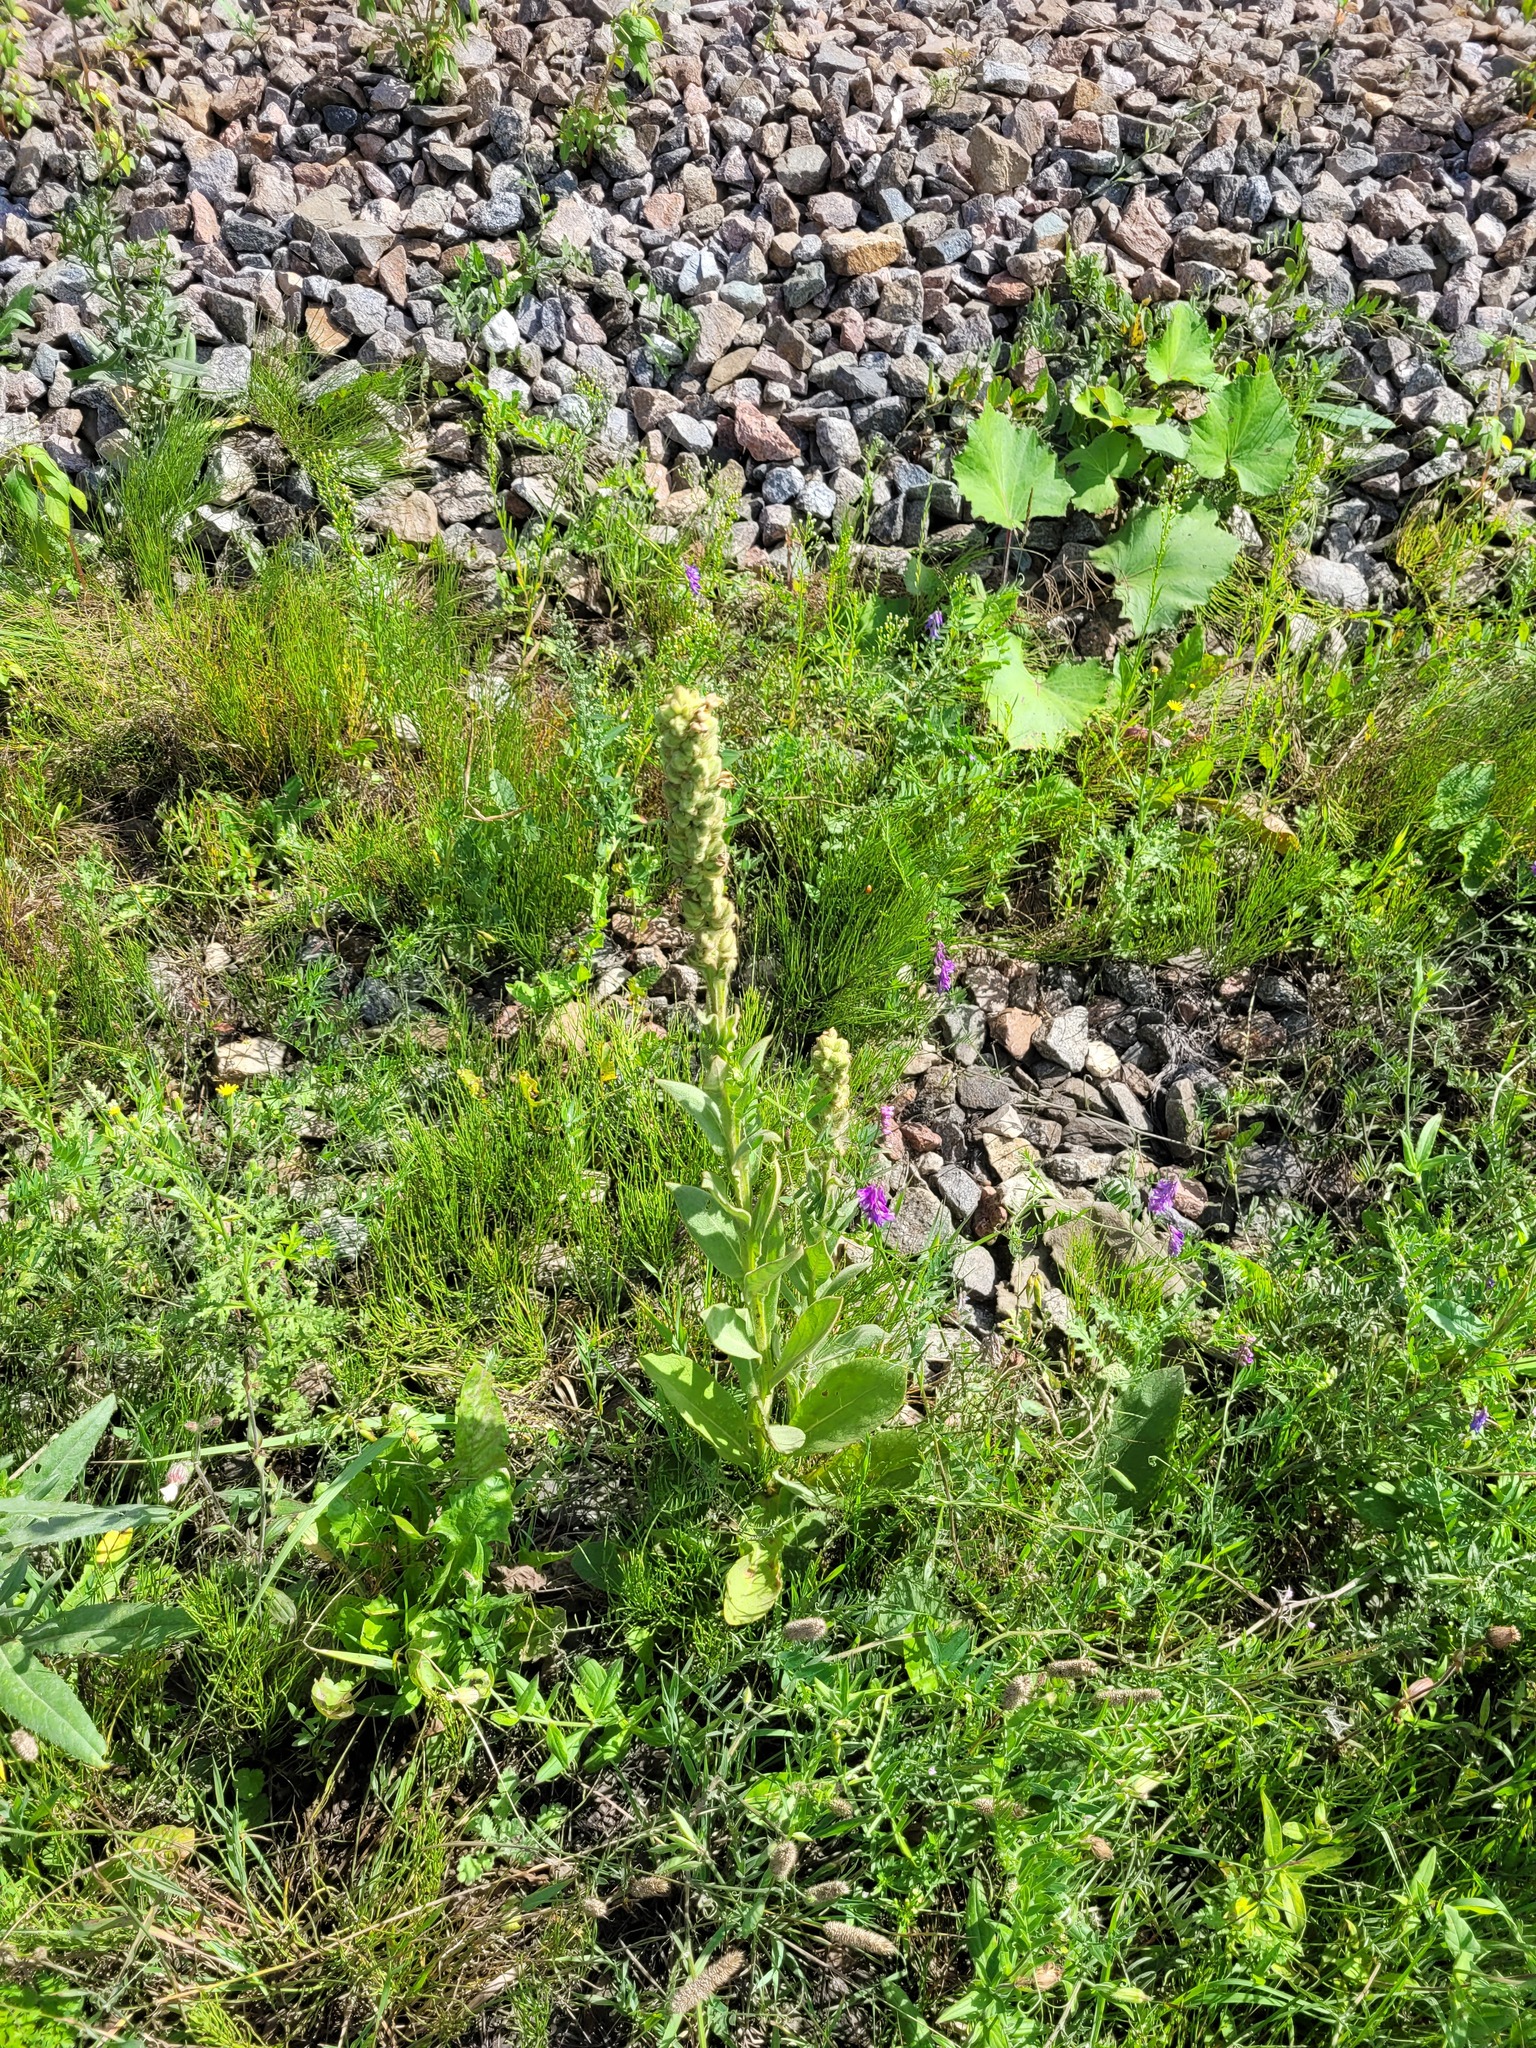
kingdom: Plantae
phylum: Tracheophyta
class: Magnoliopsida
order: Lamiales
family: Scrophulariaceae
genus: Verbascum
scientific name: Verbascum thapsus
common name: Common mullein
